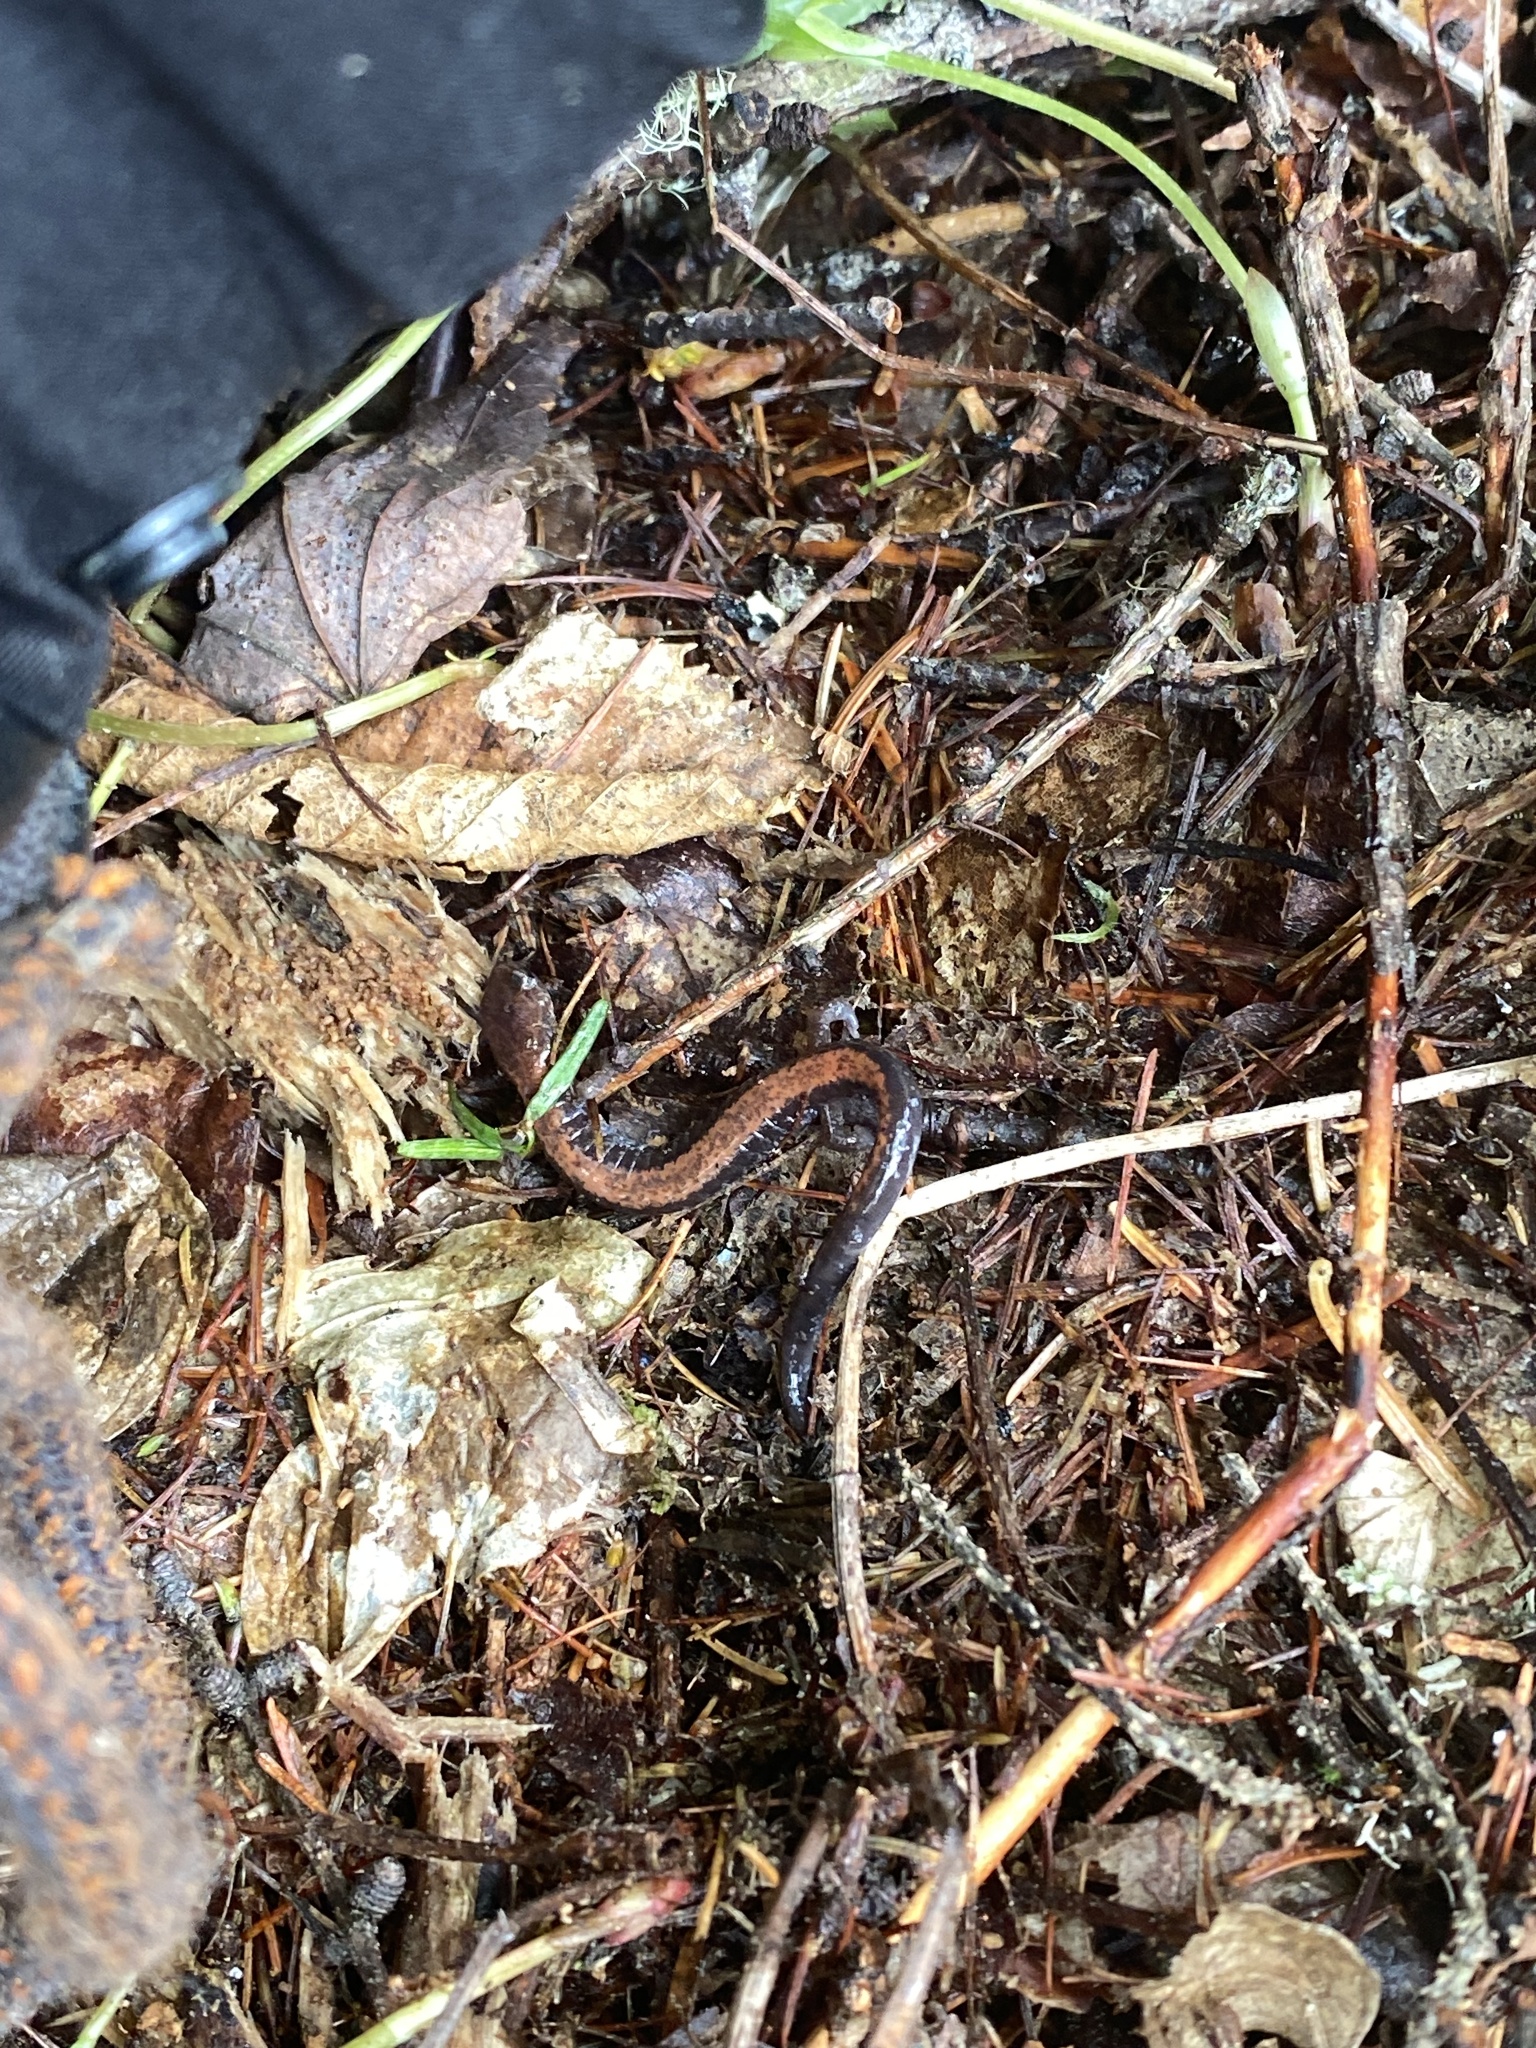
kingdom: Animalia
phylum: Chordata
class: Amphibia
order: Caudata
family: Plethodontidae
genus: Plethodon
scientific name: Plethodon cinereus
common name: Redback salamander
